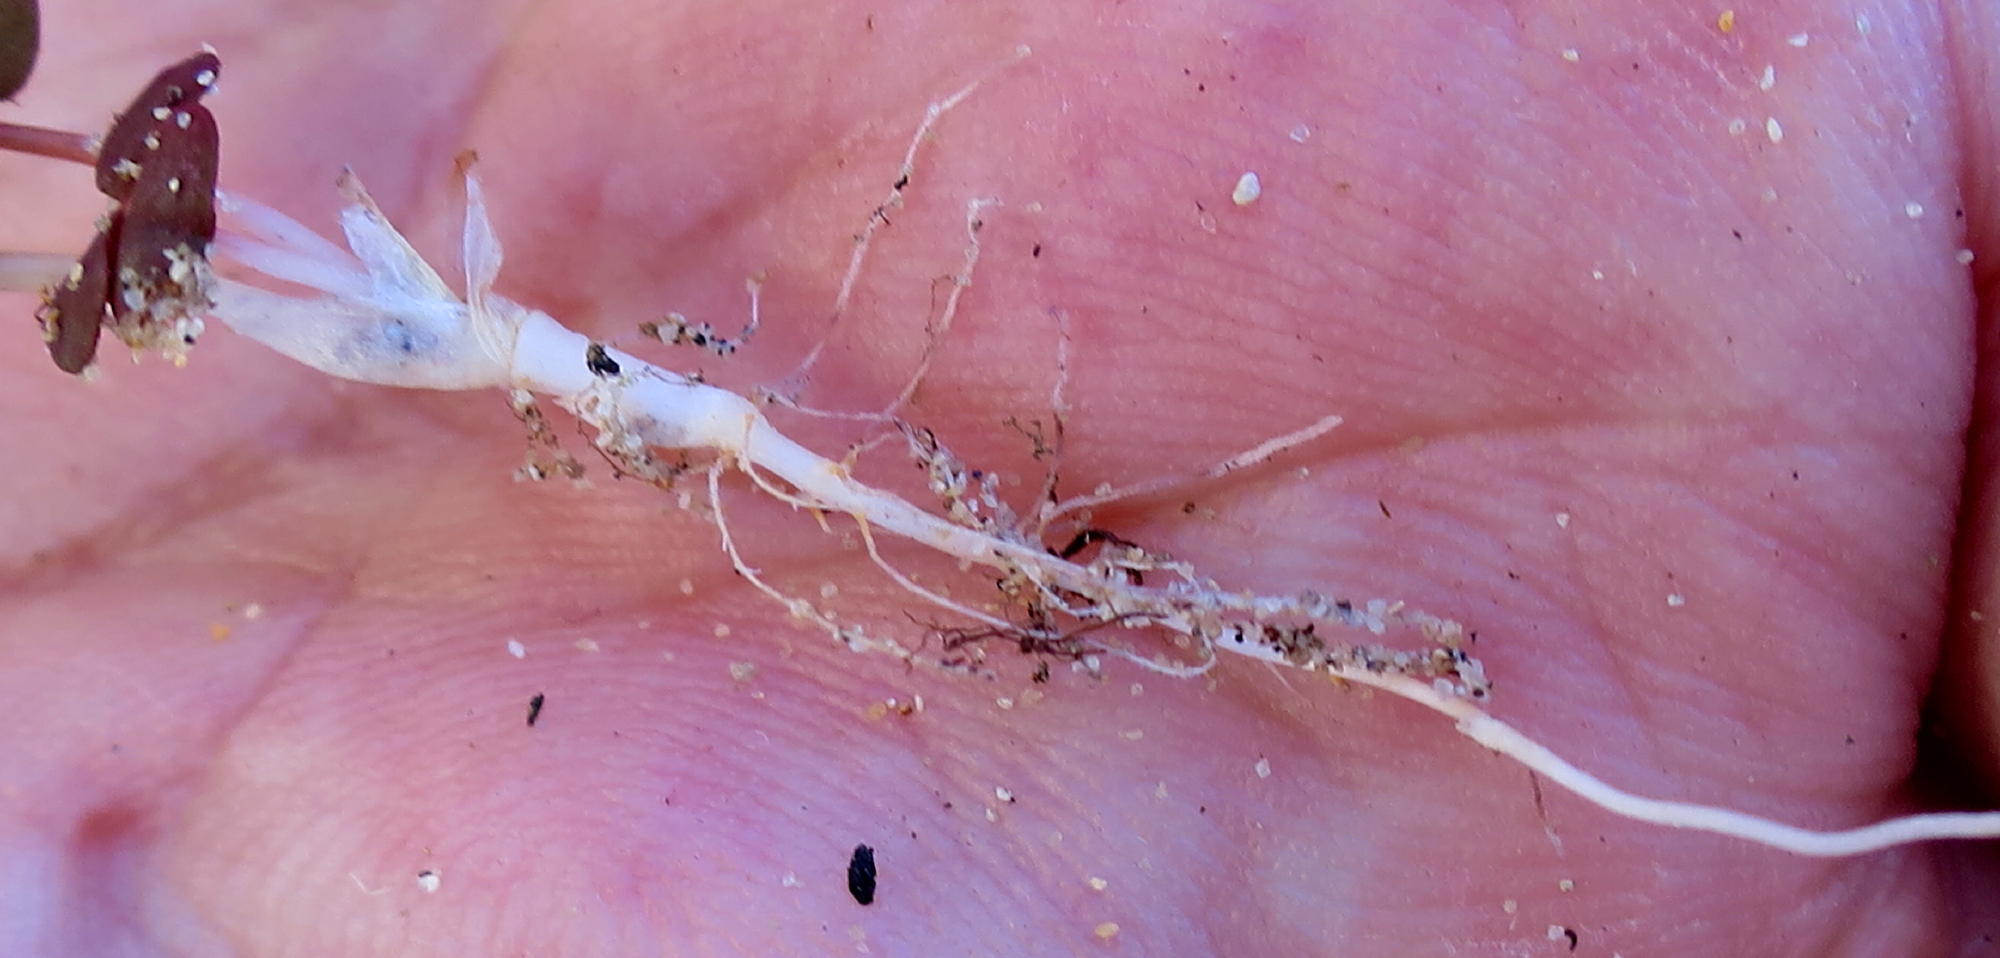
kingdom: Plantae
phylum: Tracheophyta
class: Magnoliopsida
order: Oxalidales
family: Oxalidaceae
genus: Oxalis
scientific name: Oxalis depressa
